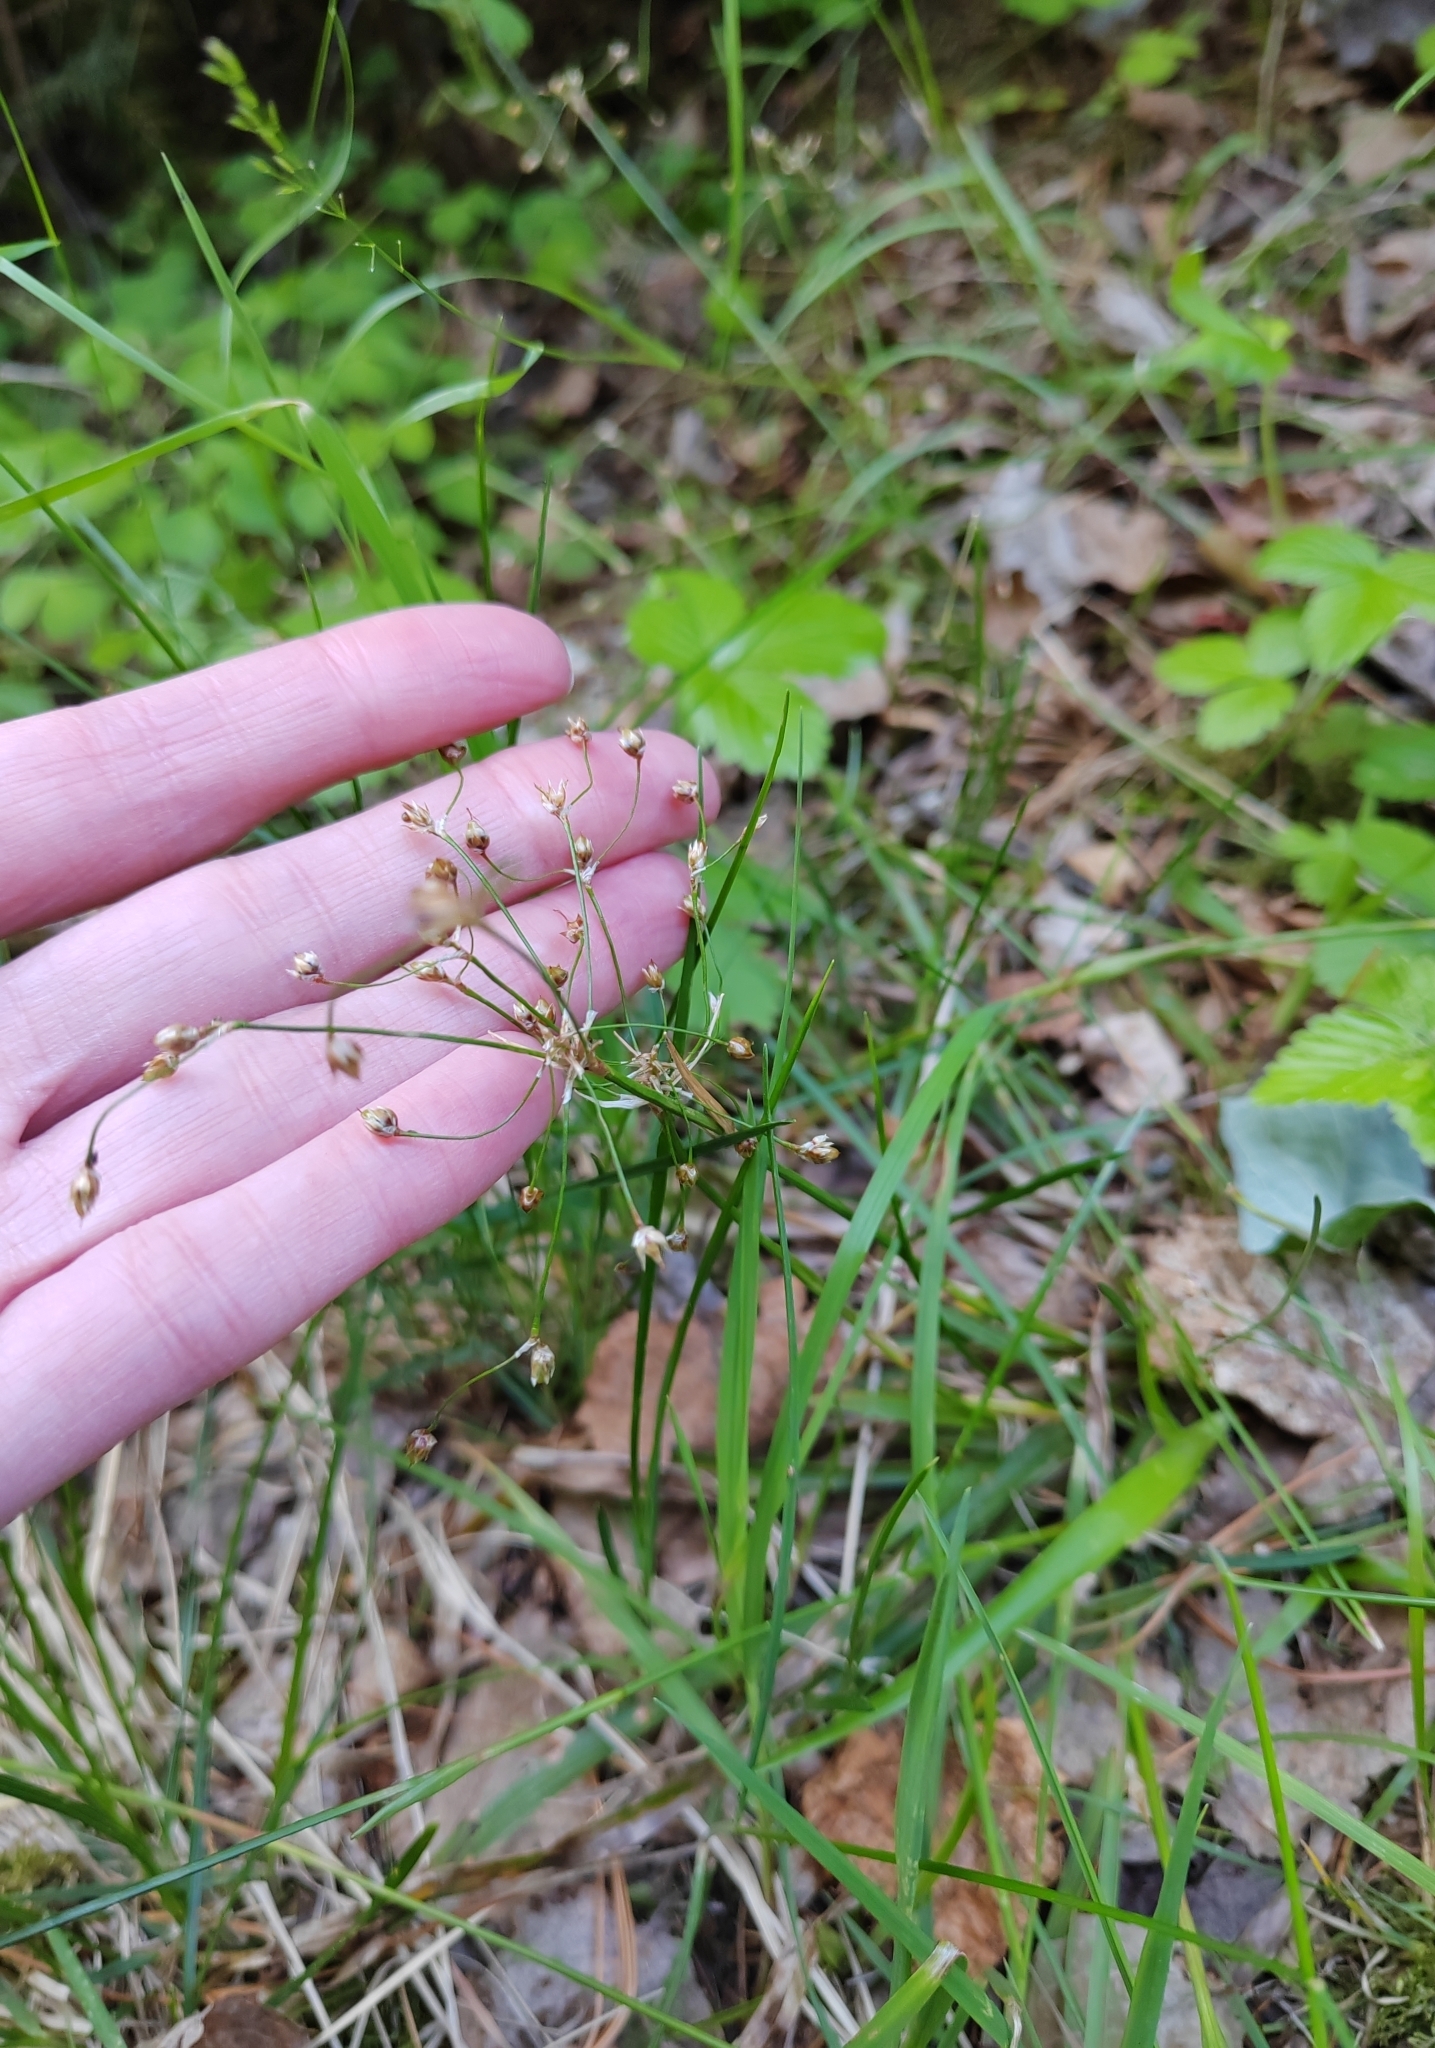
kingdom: Plantae
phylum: Tracheophyta
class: Liliopsida
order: Poales
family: Juncaceae
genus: Luzula
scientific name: Luzula pilosa
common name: Hairy wood-rush
